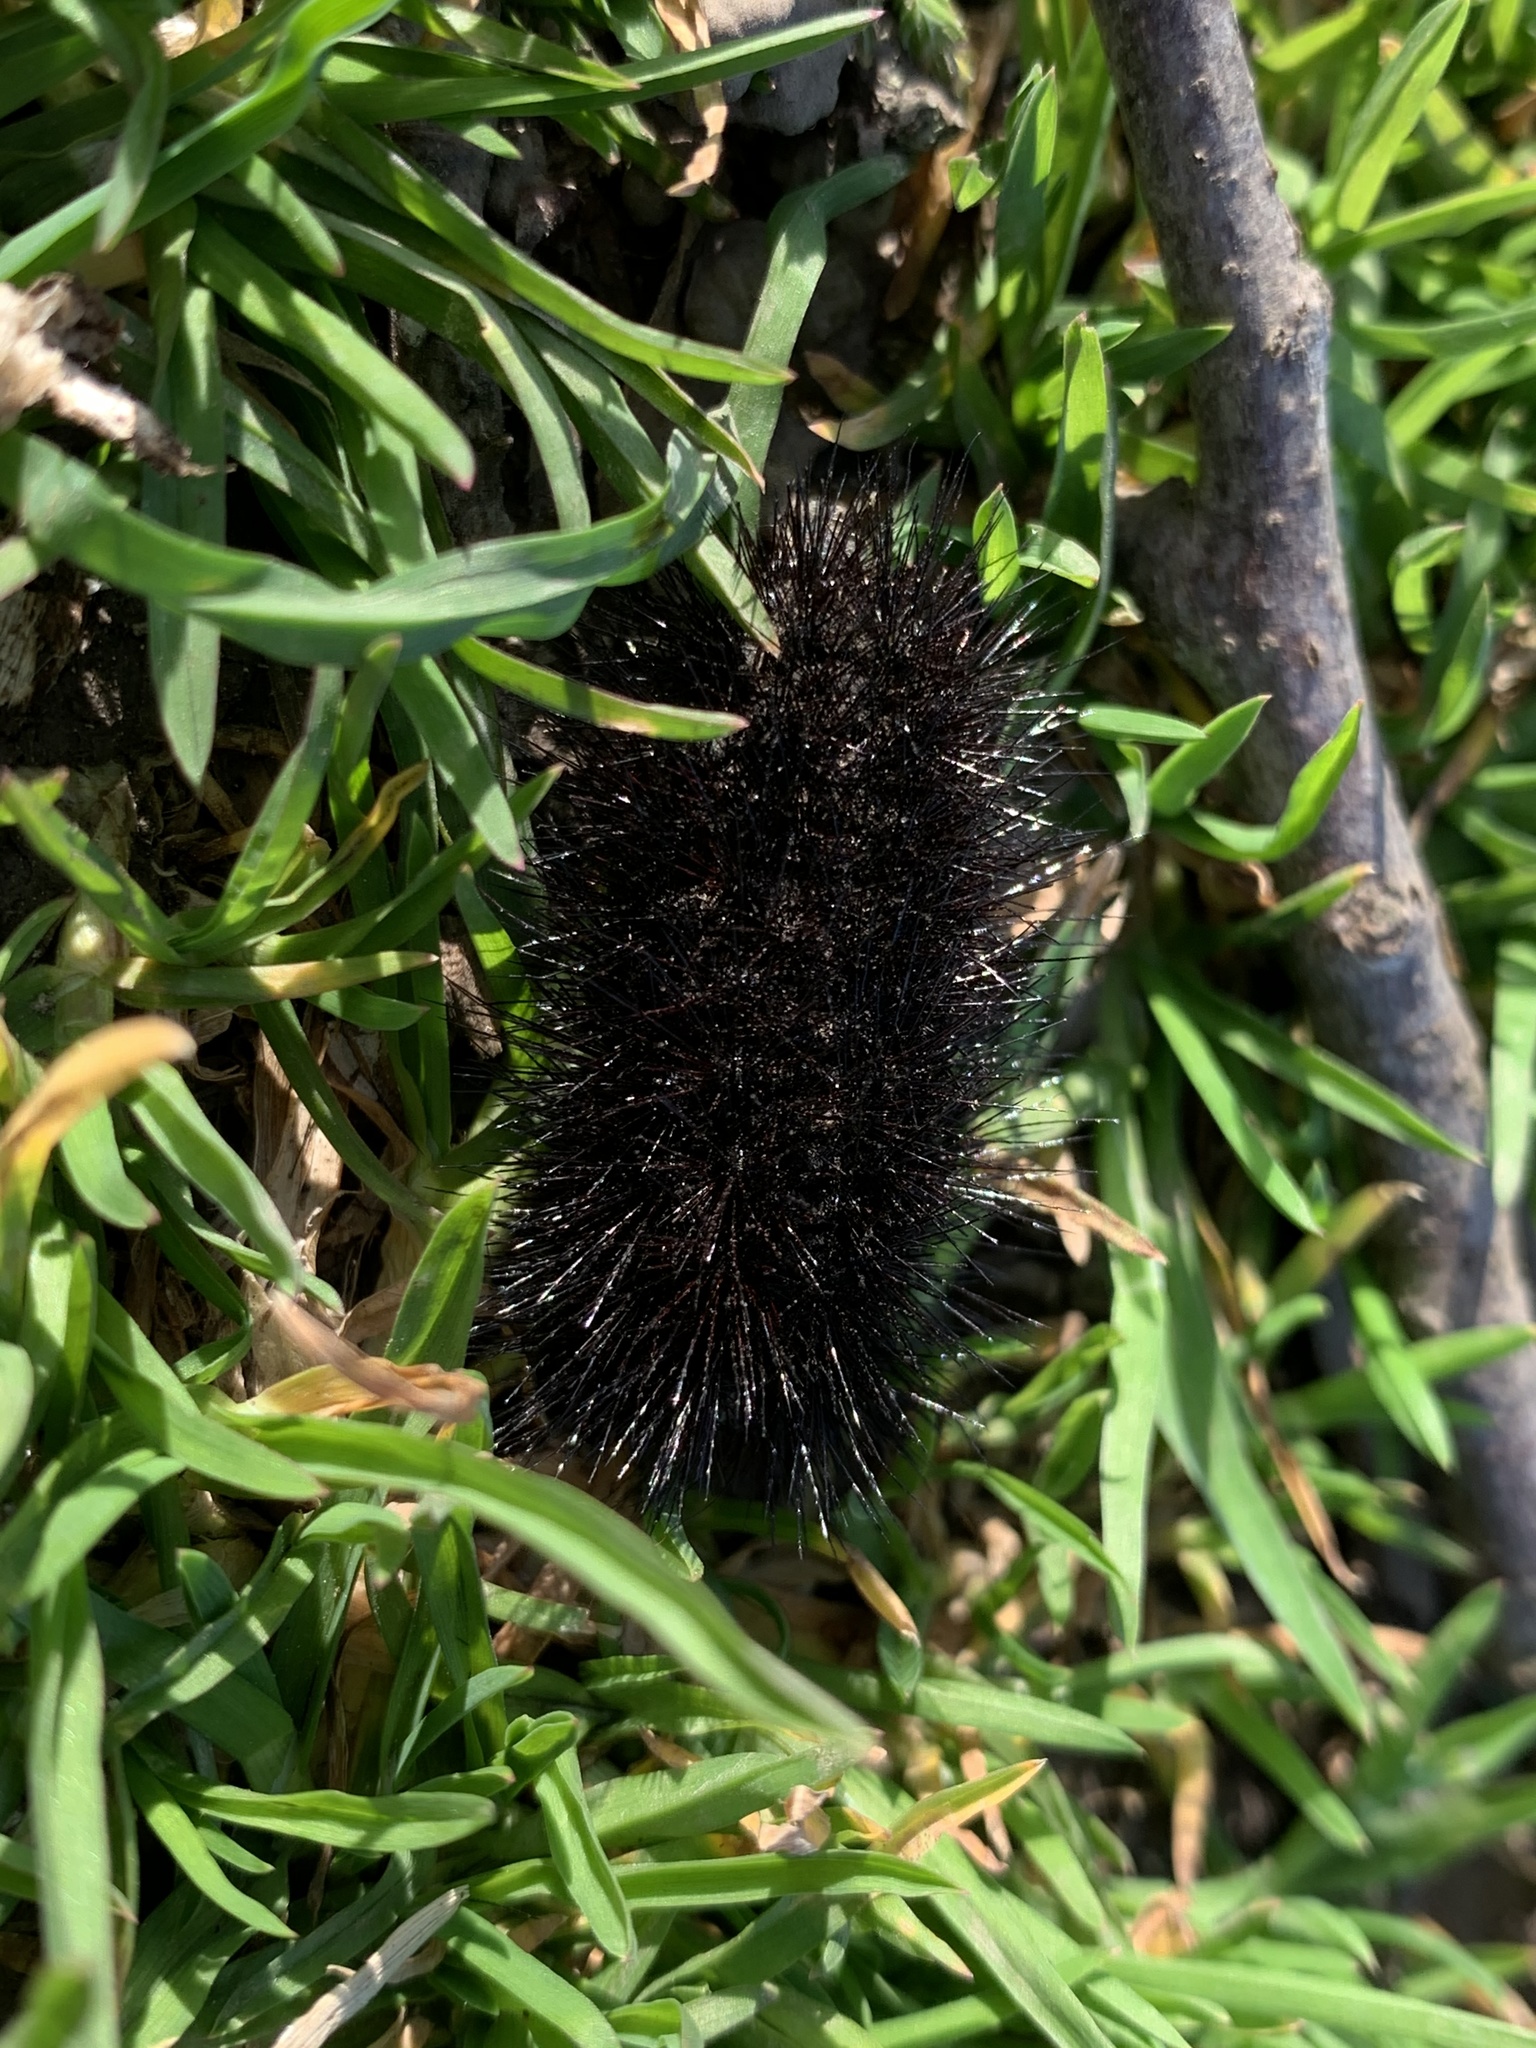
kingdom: Animalia
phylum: Arthropoda
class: Insecta
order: Lepidoptera
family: Erebidae
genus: Hypercompe
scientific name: Hypercompe scribonia
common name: Giant leopard moth
